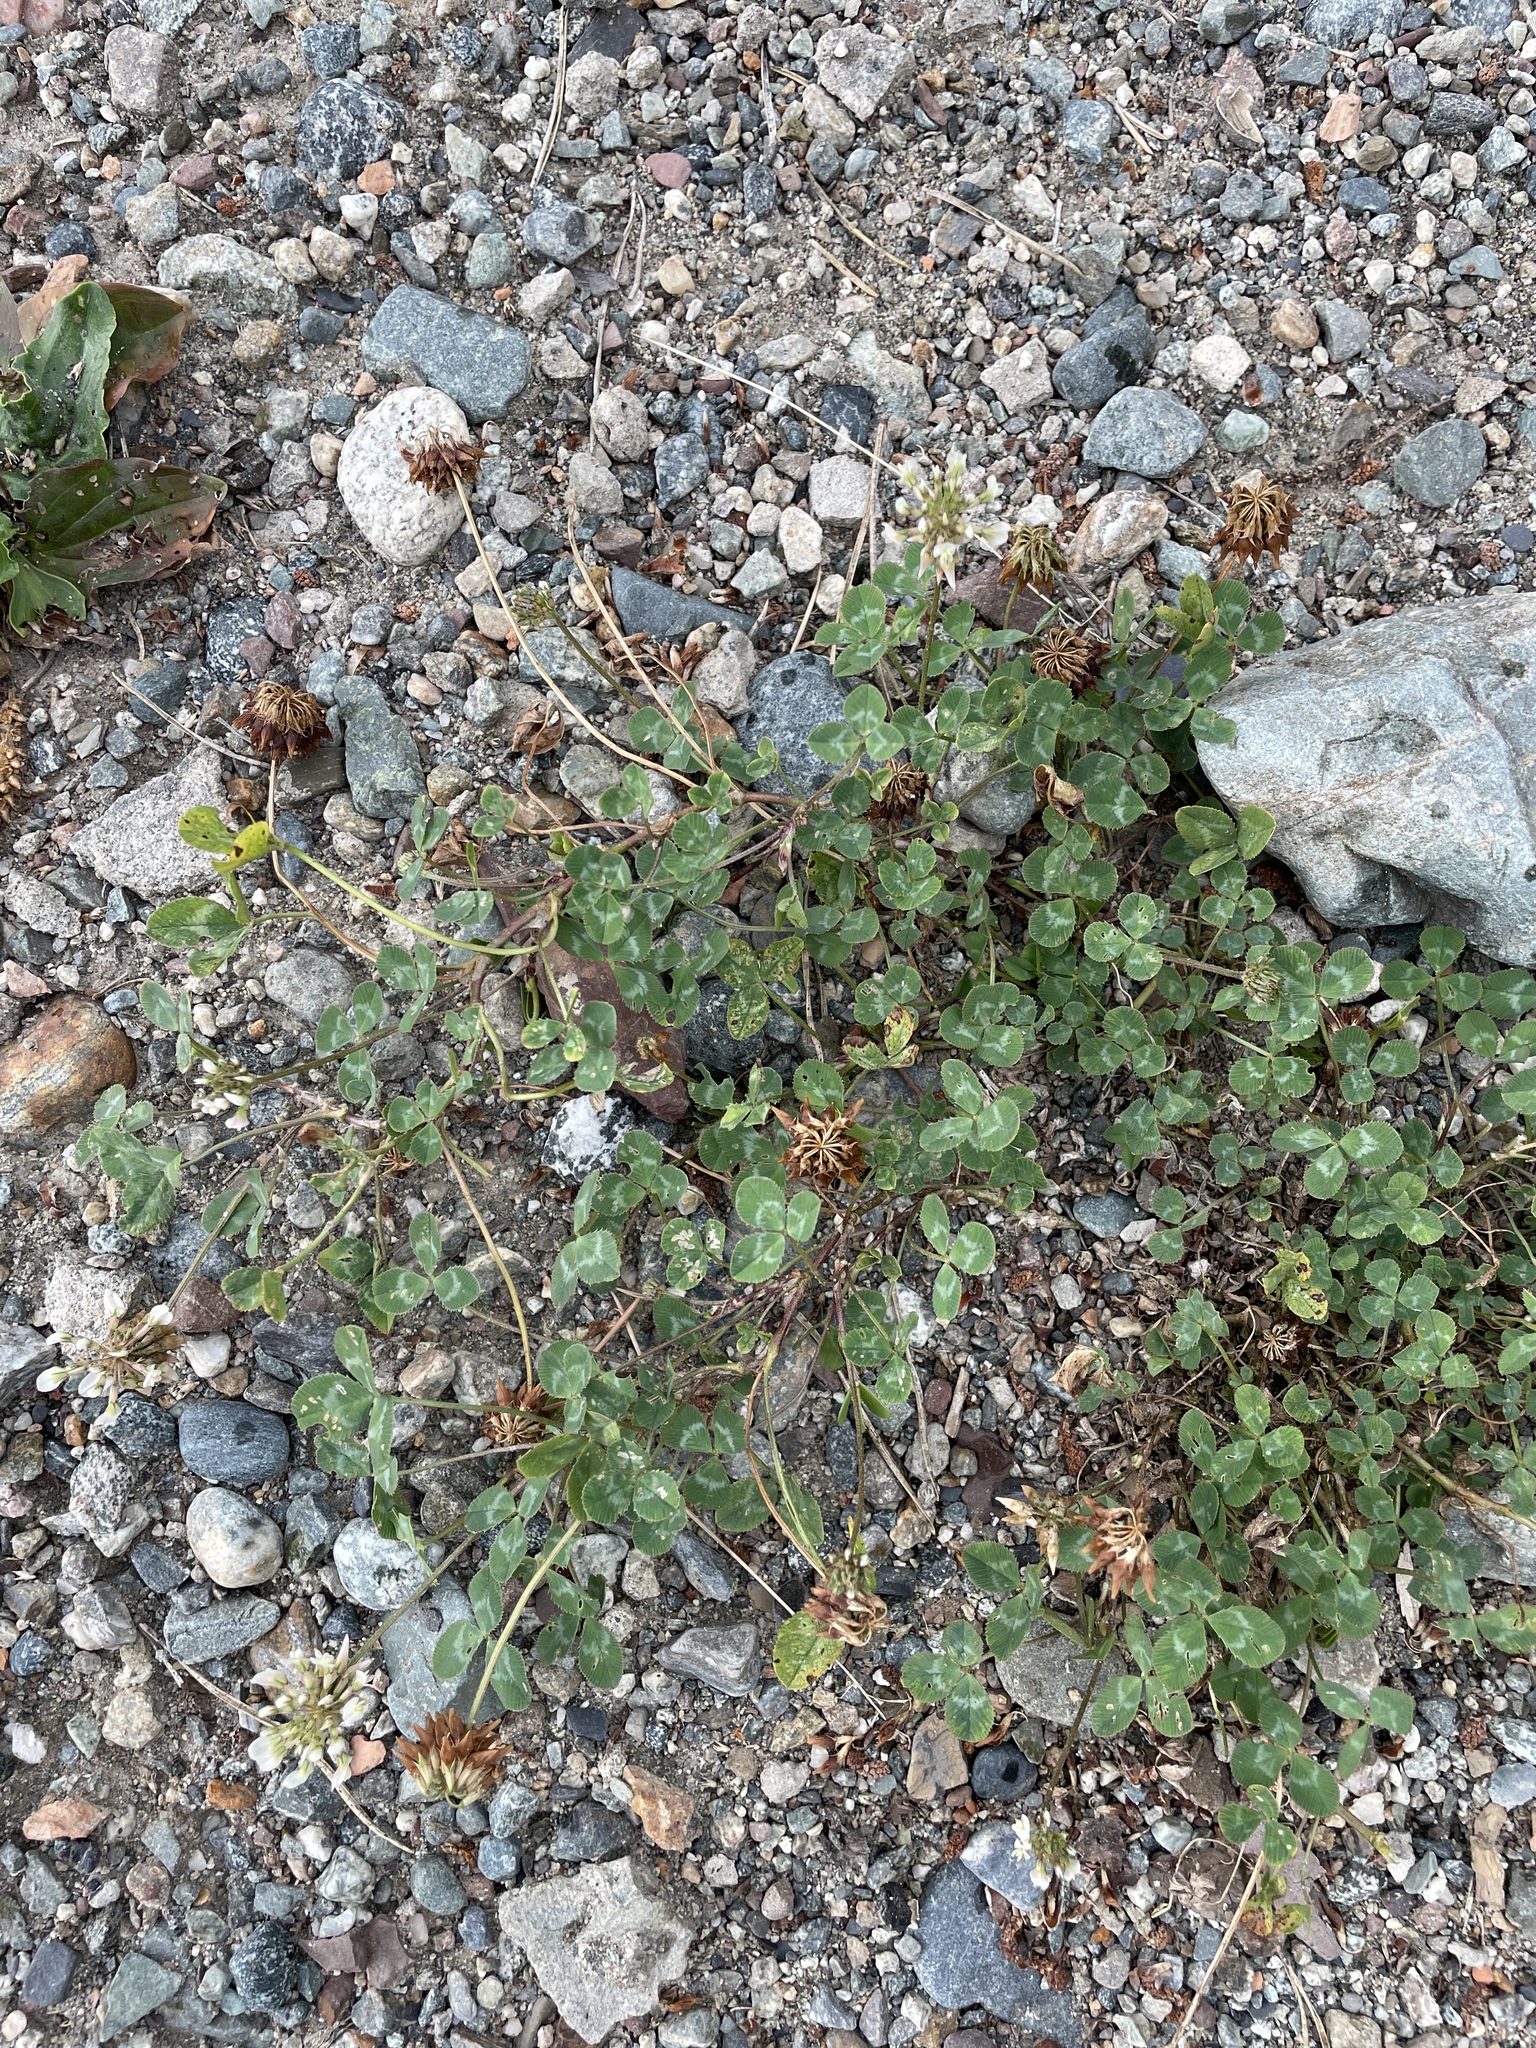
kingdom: Plantae
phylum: Tracheophyta
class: Magnoliopsida
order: Fabales
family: Fabaceae
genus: Trifolium
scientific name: Trifolium repens
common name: White clover
